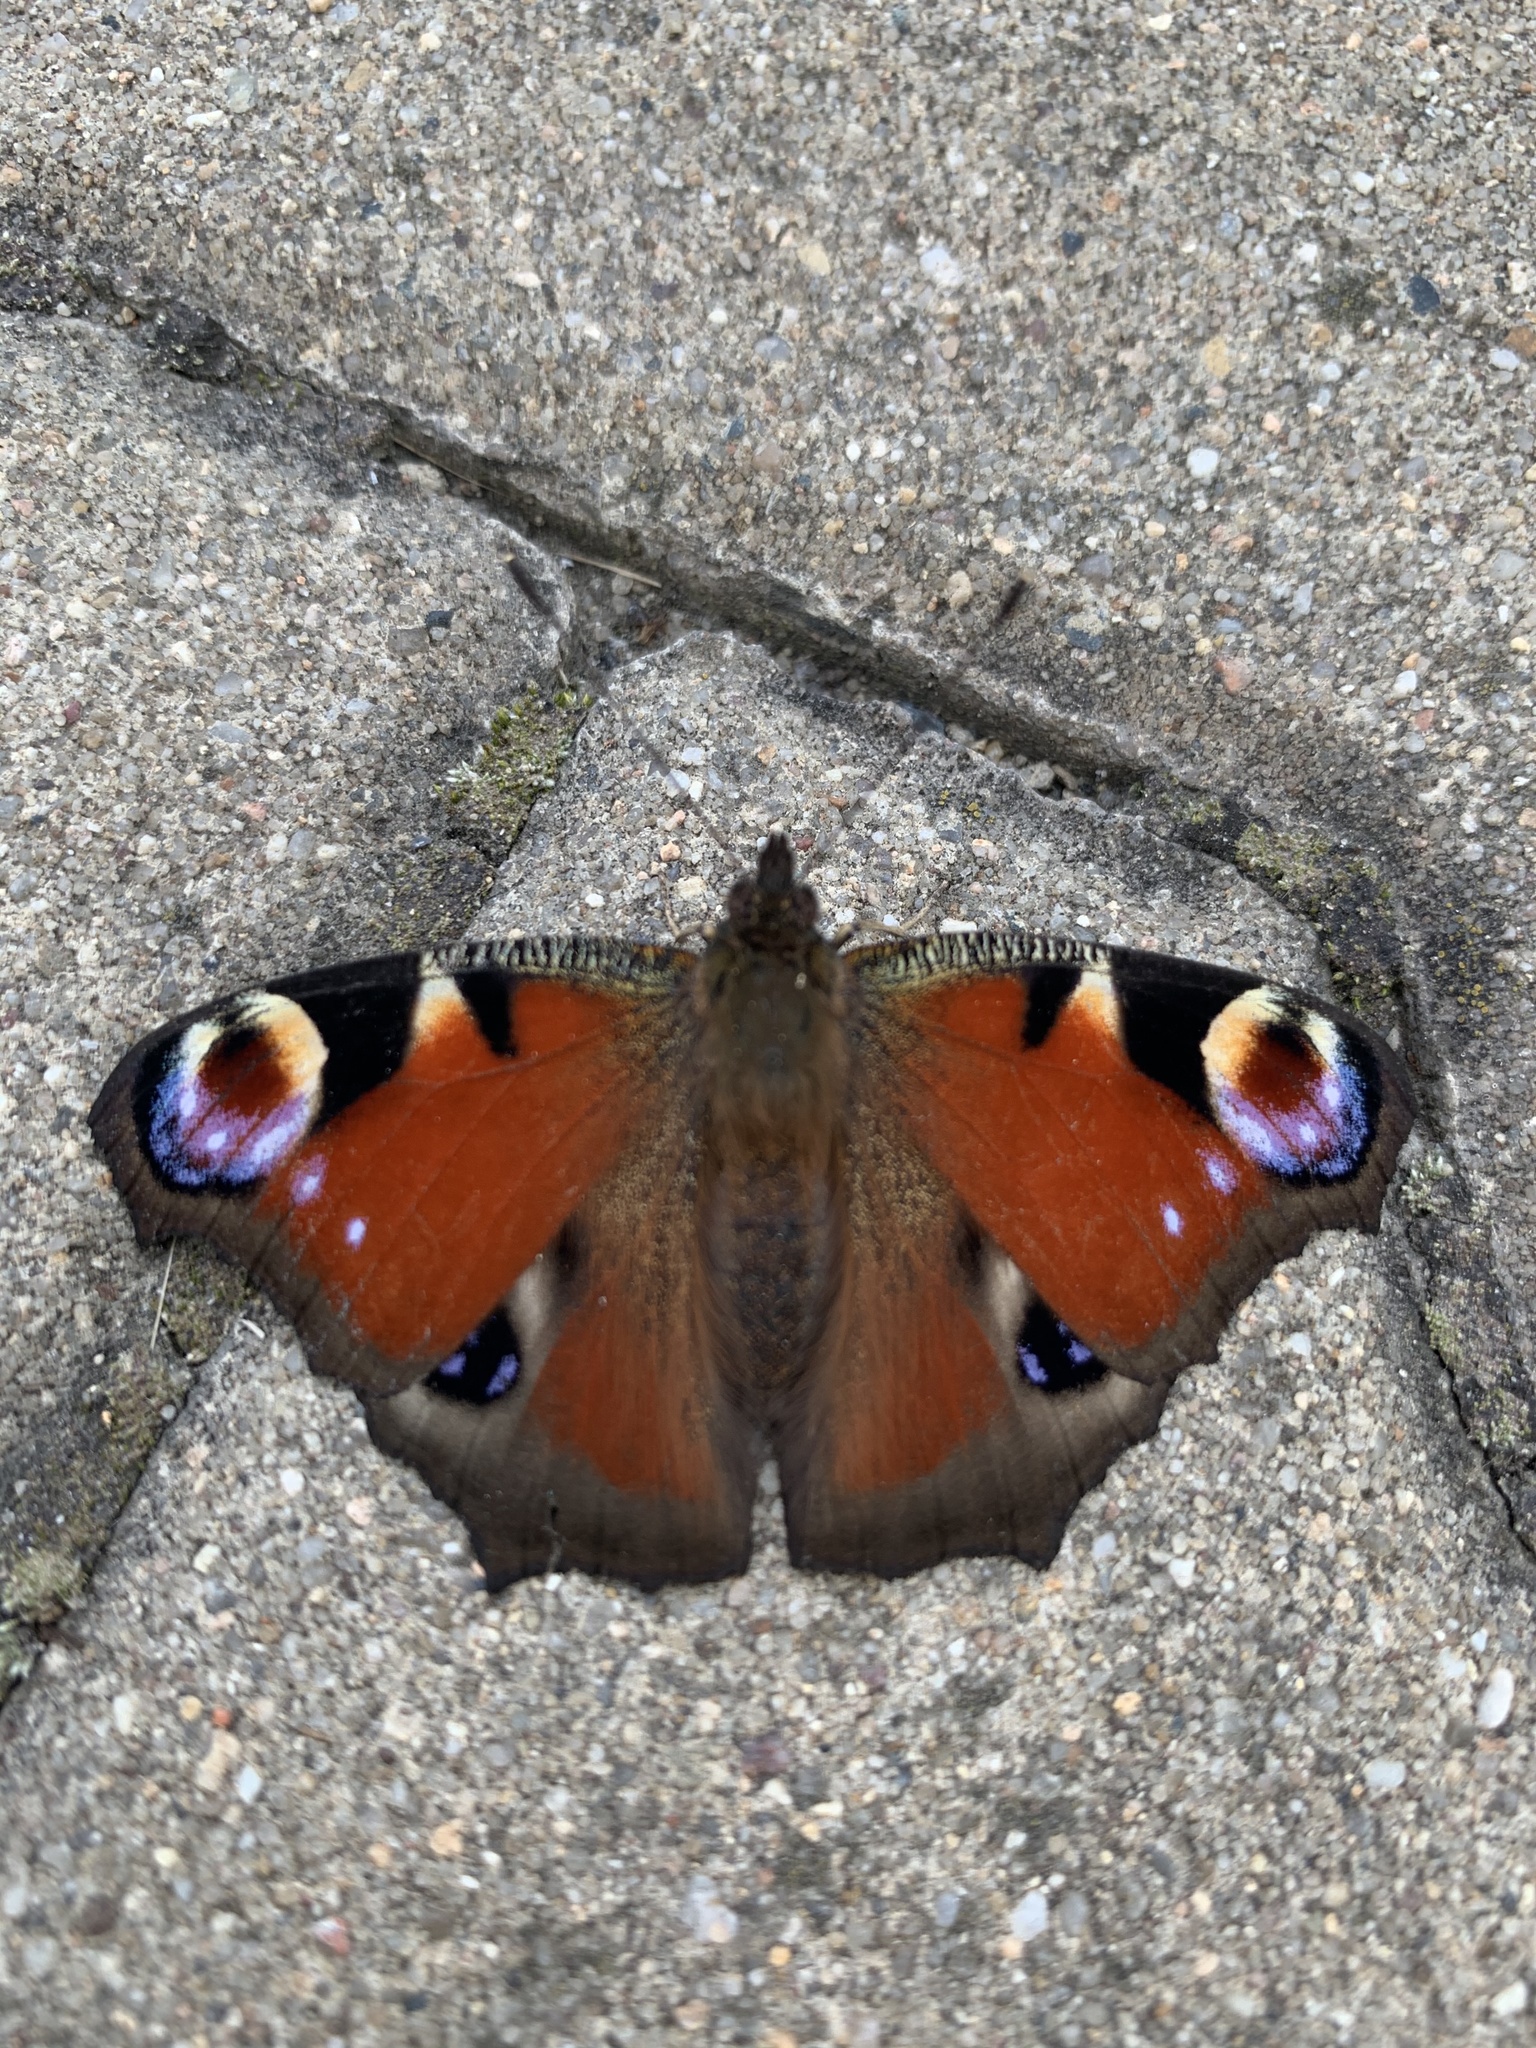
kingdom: Animalia
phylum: Arthropoda
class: Insecta
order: Lepidoptera
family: Nymphalidae
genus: Aglais
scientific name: Aglais io
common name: Peacock
